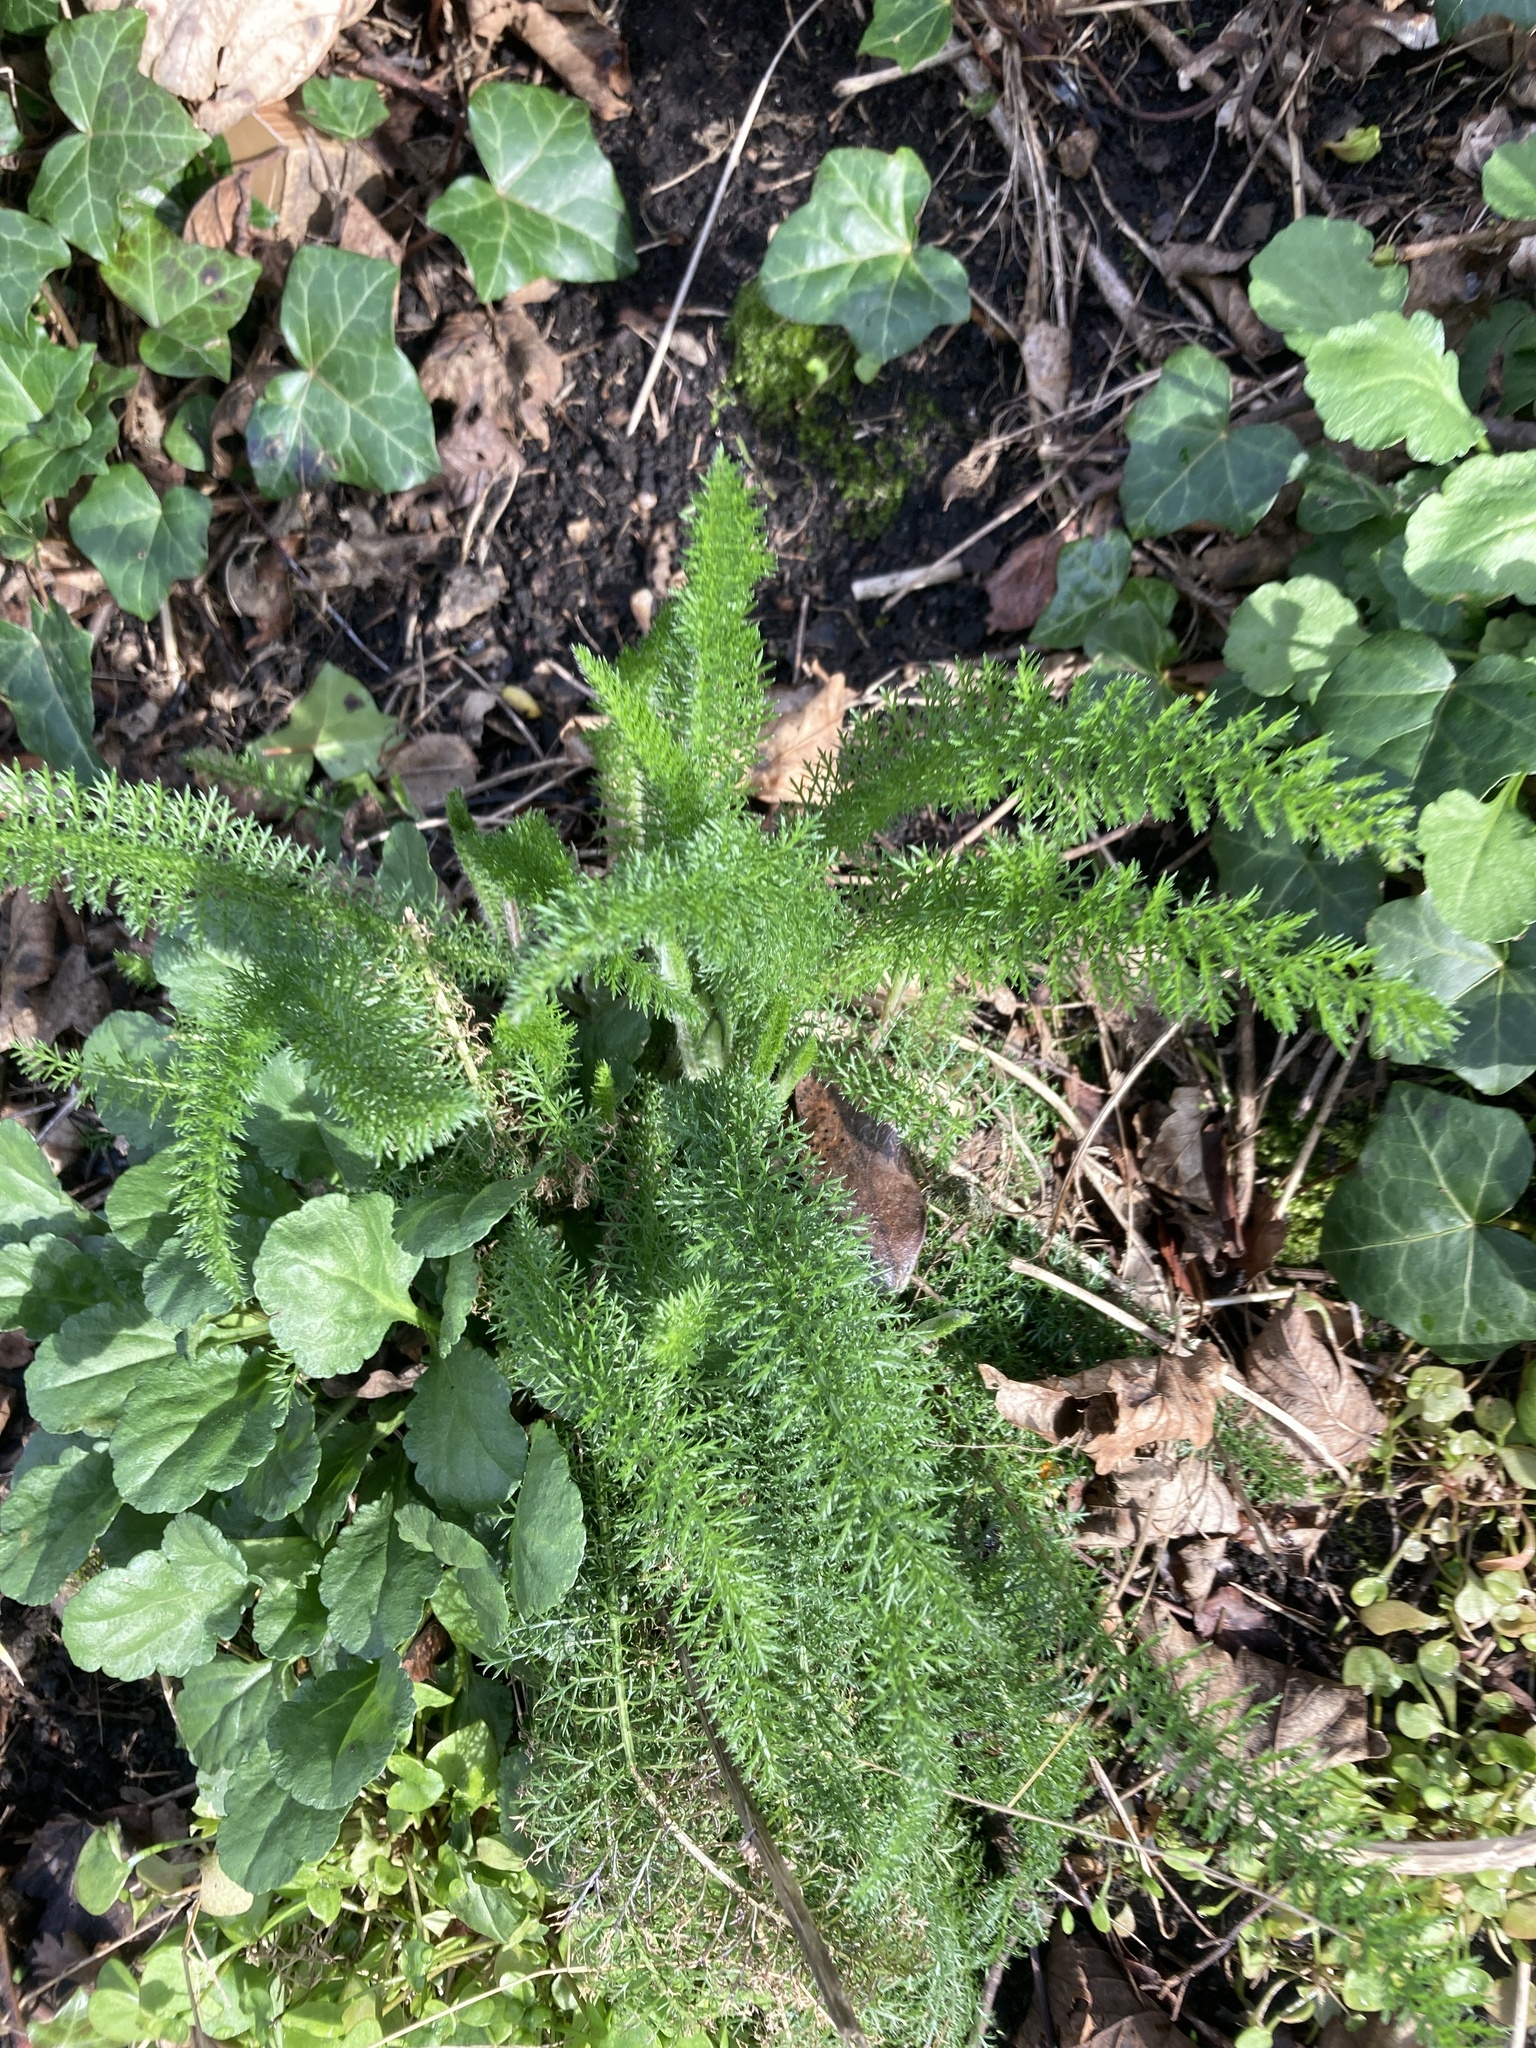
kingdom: Plantae
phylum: Tracheophyta
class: Magnoliopsida
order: Asterales
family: Asteraceae
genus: Achillea
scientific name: Achillea millefolium
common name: Yarrow
